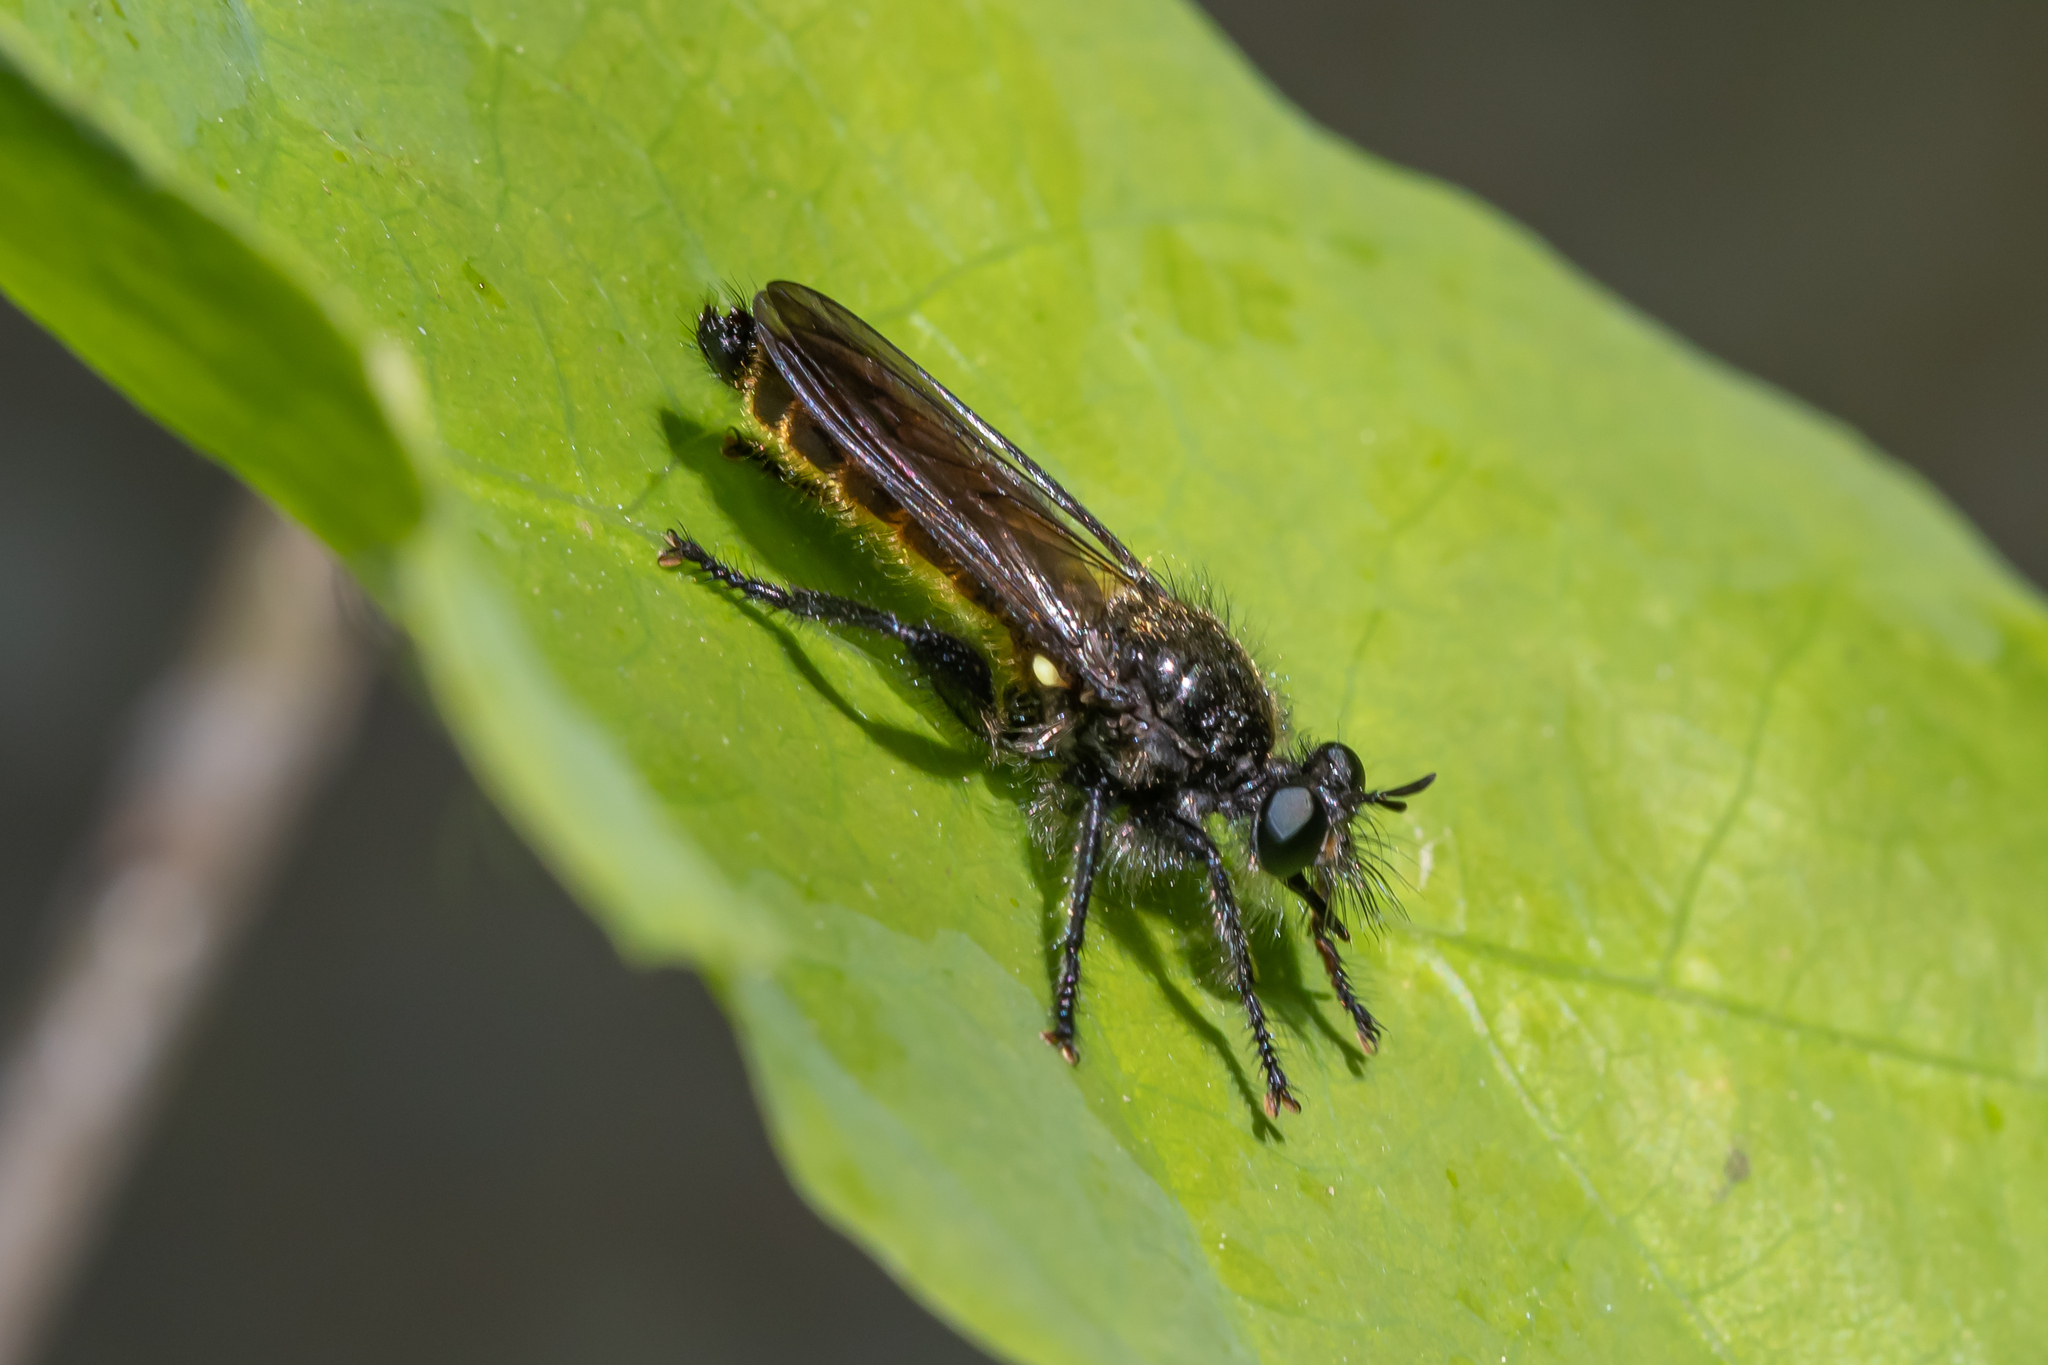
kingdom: Animalia
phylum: Arthropoda
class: Insecta
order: Diptera
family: Asilidae
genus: Lamyra
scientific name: Lamyra marginata
